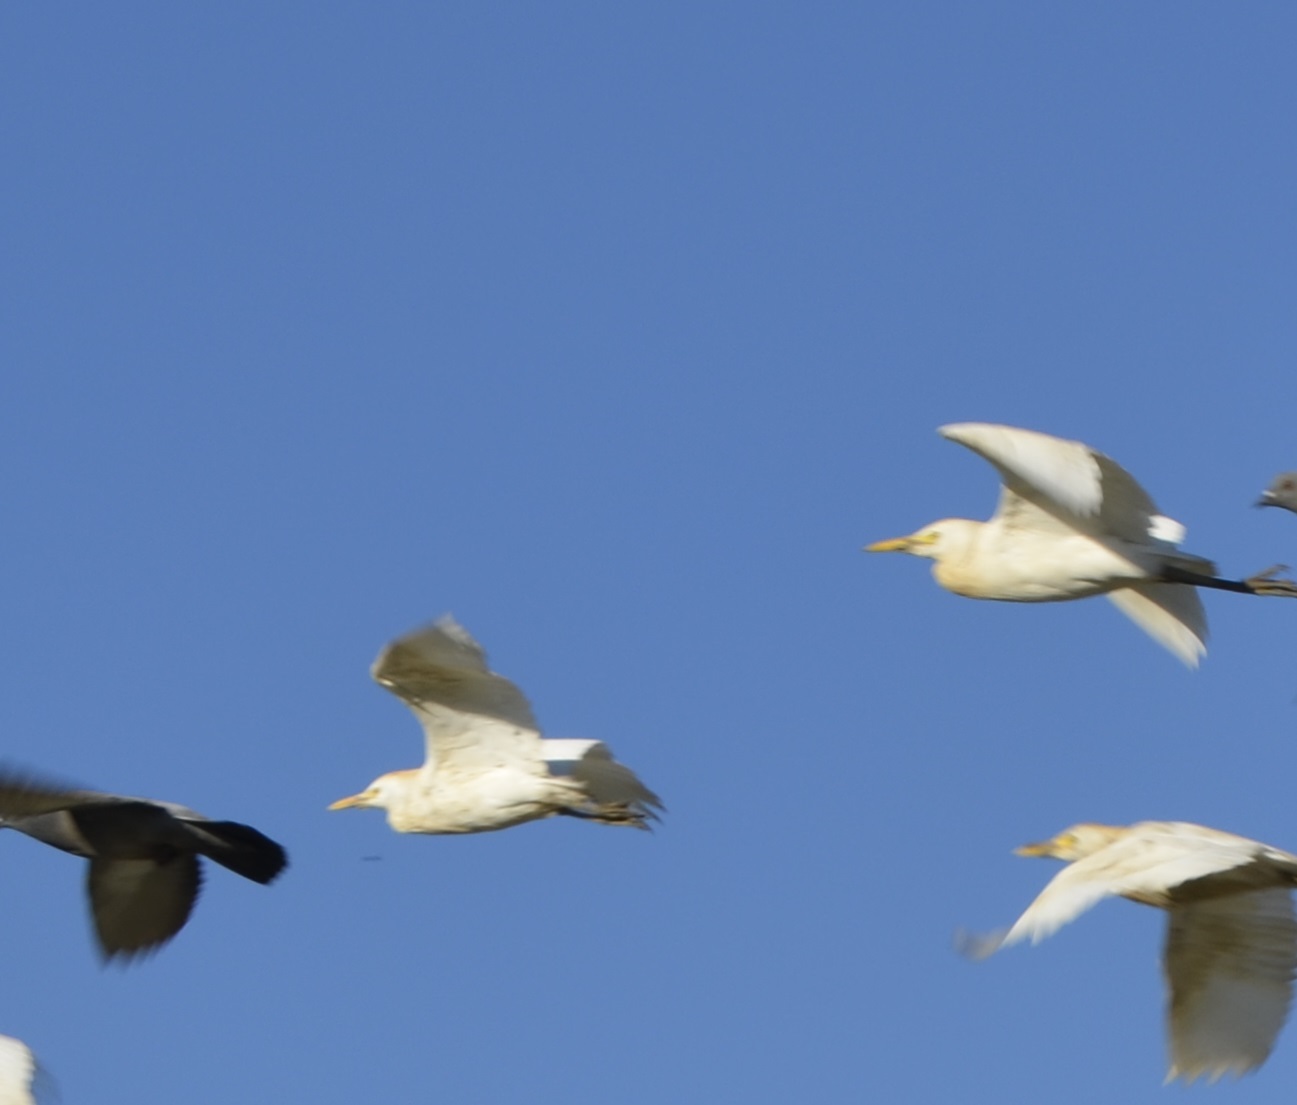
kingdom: Animalia
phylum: Chordata
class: Aves
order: Pelecaniformes
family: Ardeidae
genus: Bubulcus
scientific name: Bubulcus ibis
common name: Cattle egret
